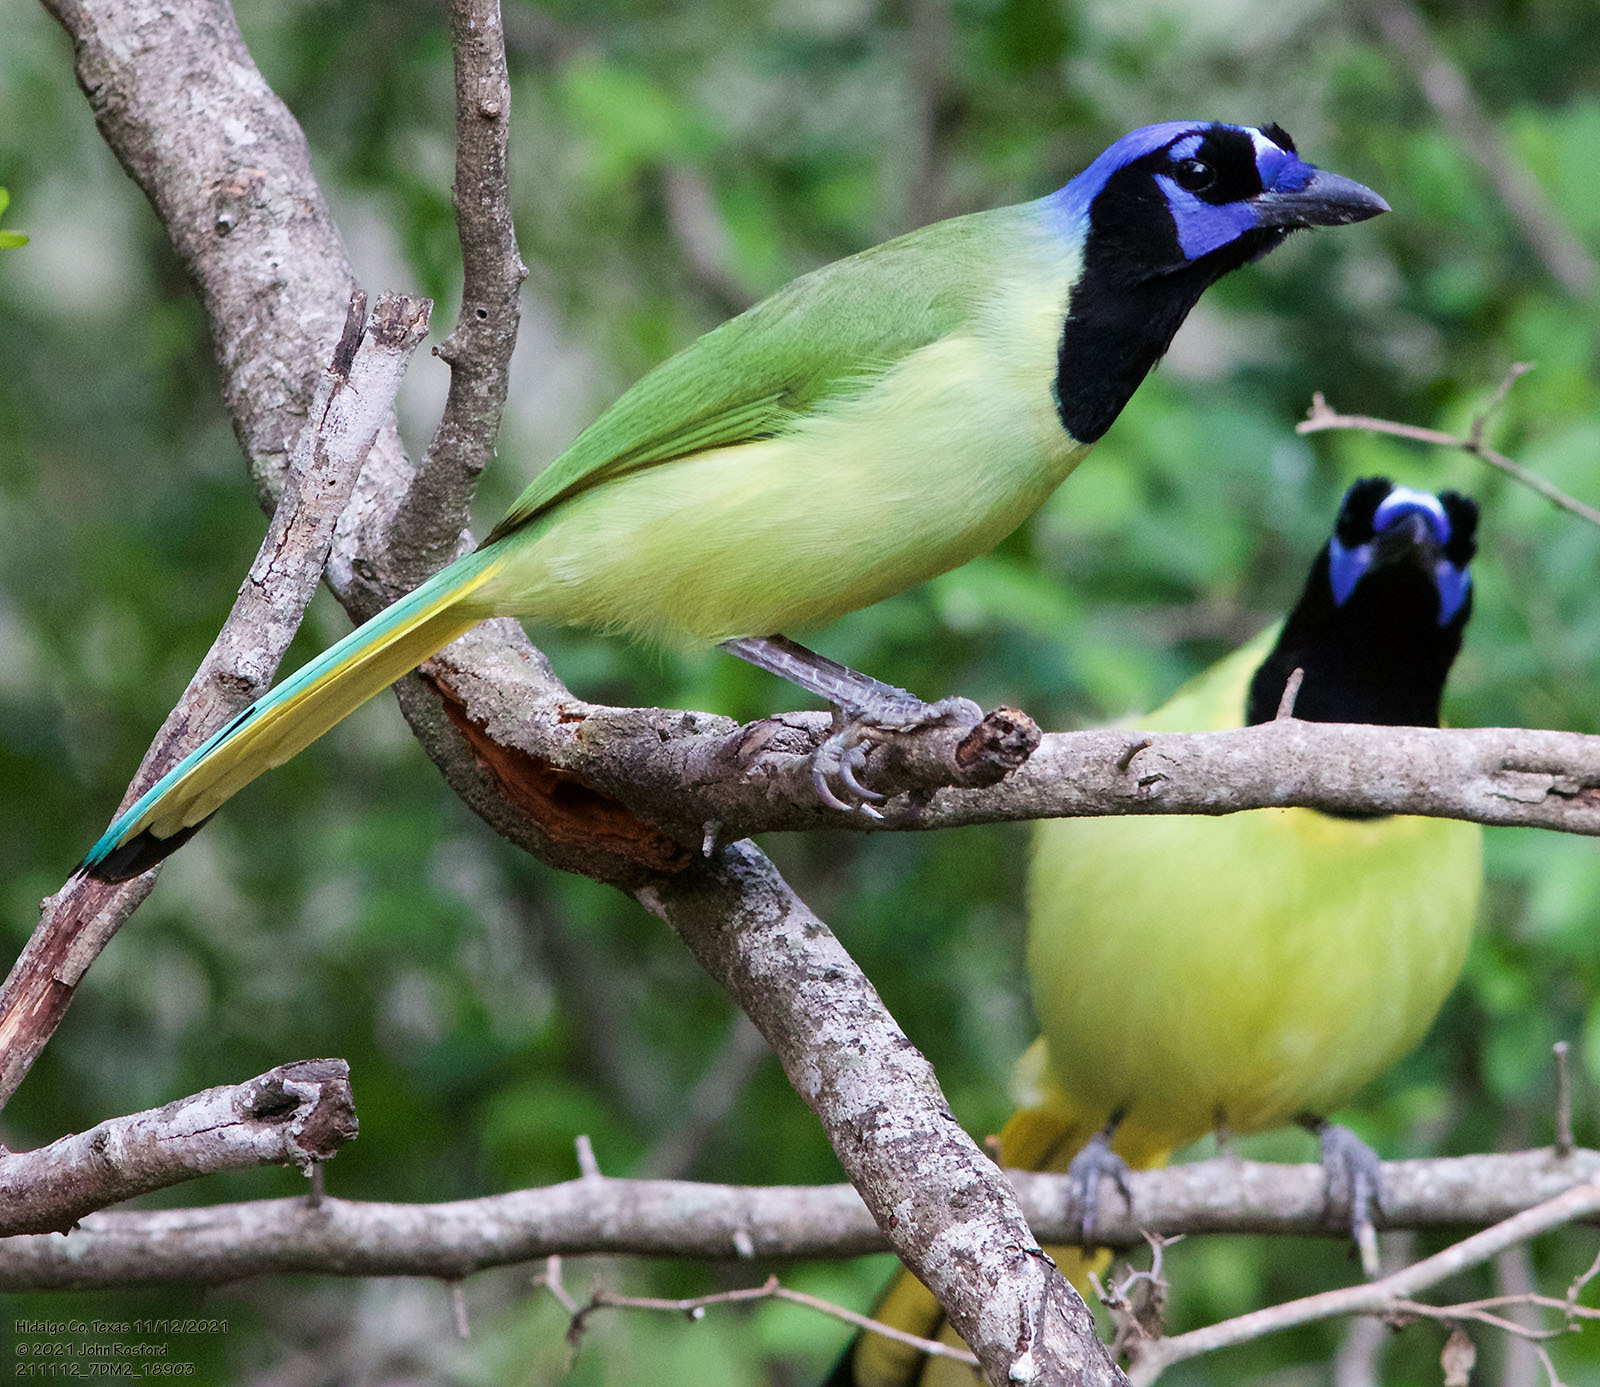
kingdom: Animalia
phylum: Chordata
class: Aves
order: Passeriformes
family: Corvidae
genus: Cyanocorax
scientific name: Cyanocorax yncas
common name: Green jay
